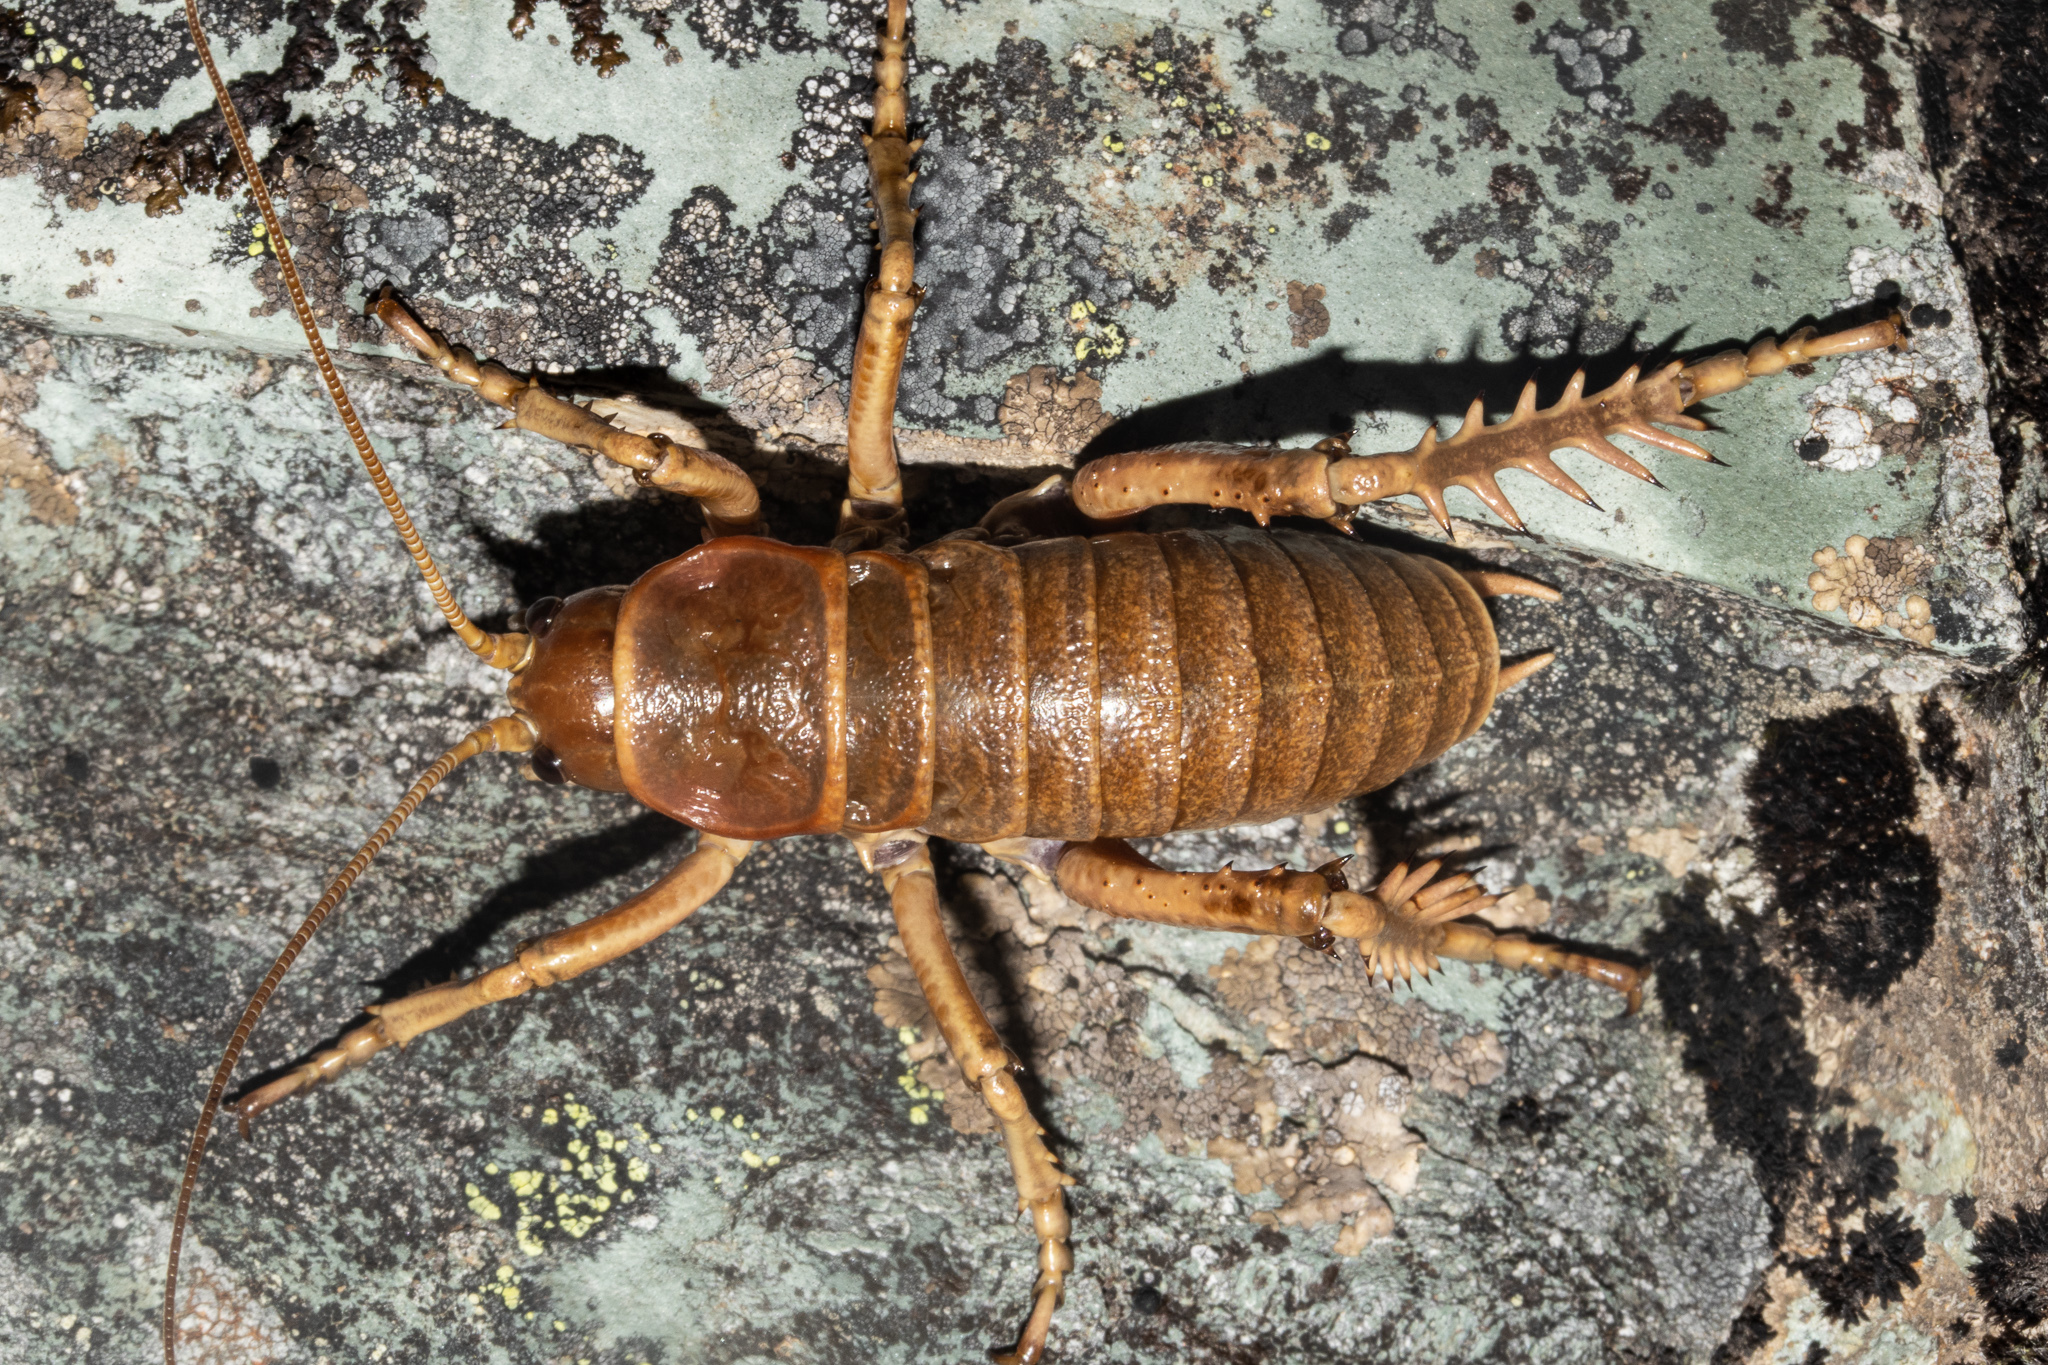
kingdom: Animalia
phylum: Arthropoda
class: Insecta
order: Orthoptera
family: Anostostomatidae
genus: Deinacrida
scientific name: Deinacrida tibiospina
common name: Mount arthur giant weta
